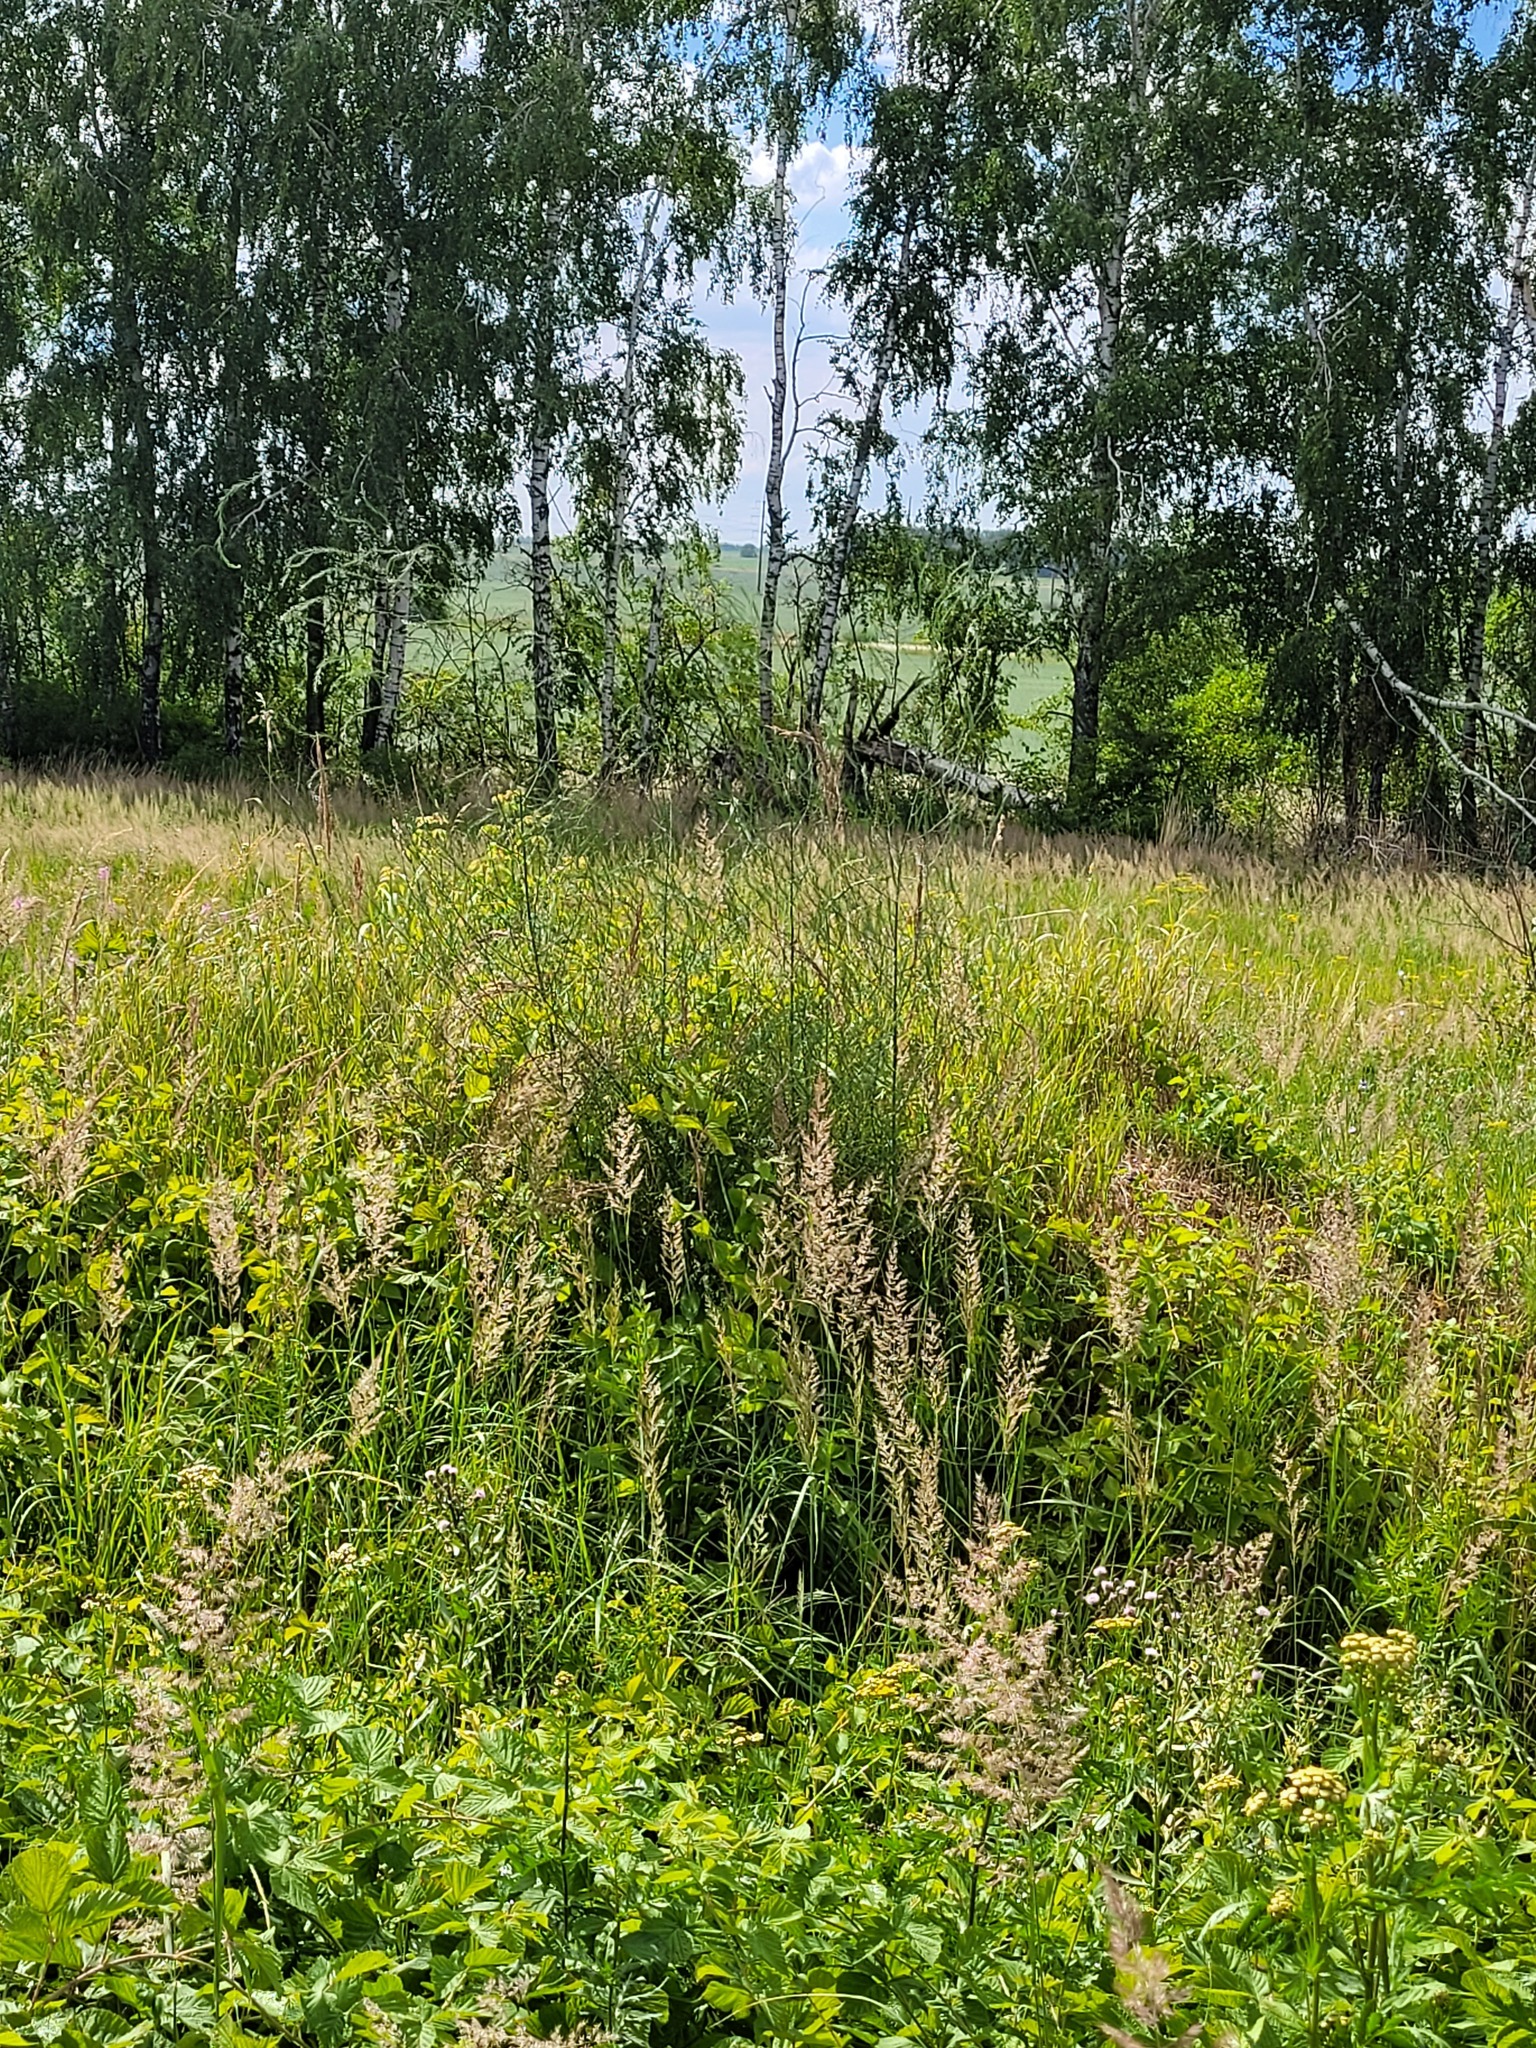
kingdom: Plantae
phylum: Tracheophyta
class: Liliopsida
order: Asparagales
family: Asparagaceae
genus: Asparagus
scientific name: Asparagus officinalis
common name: Garden asparagus
